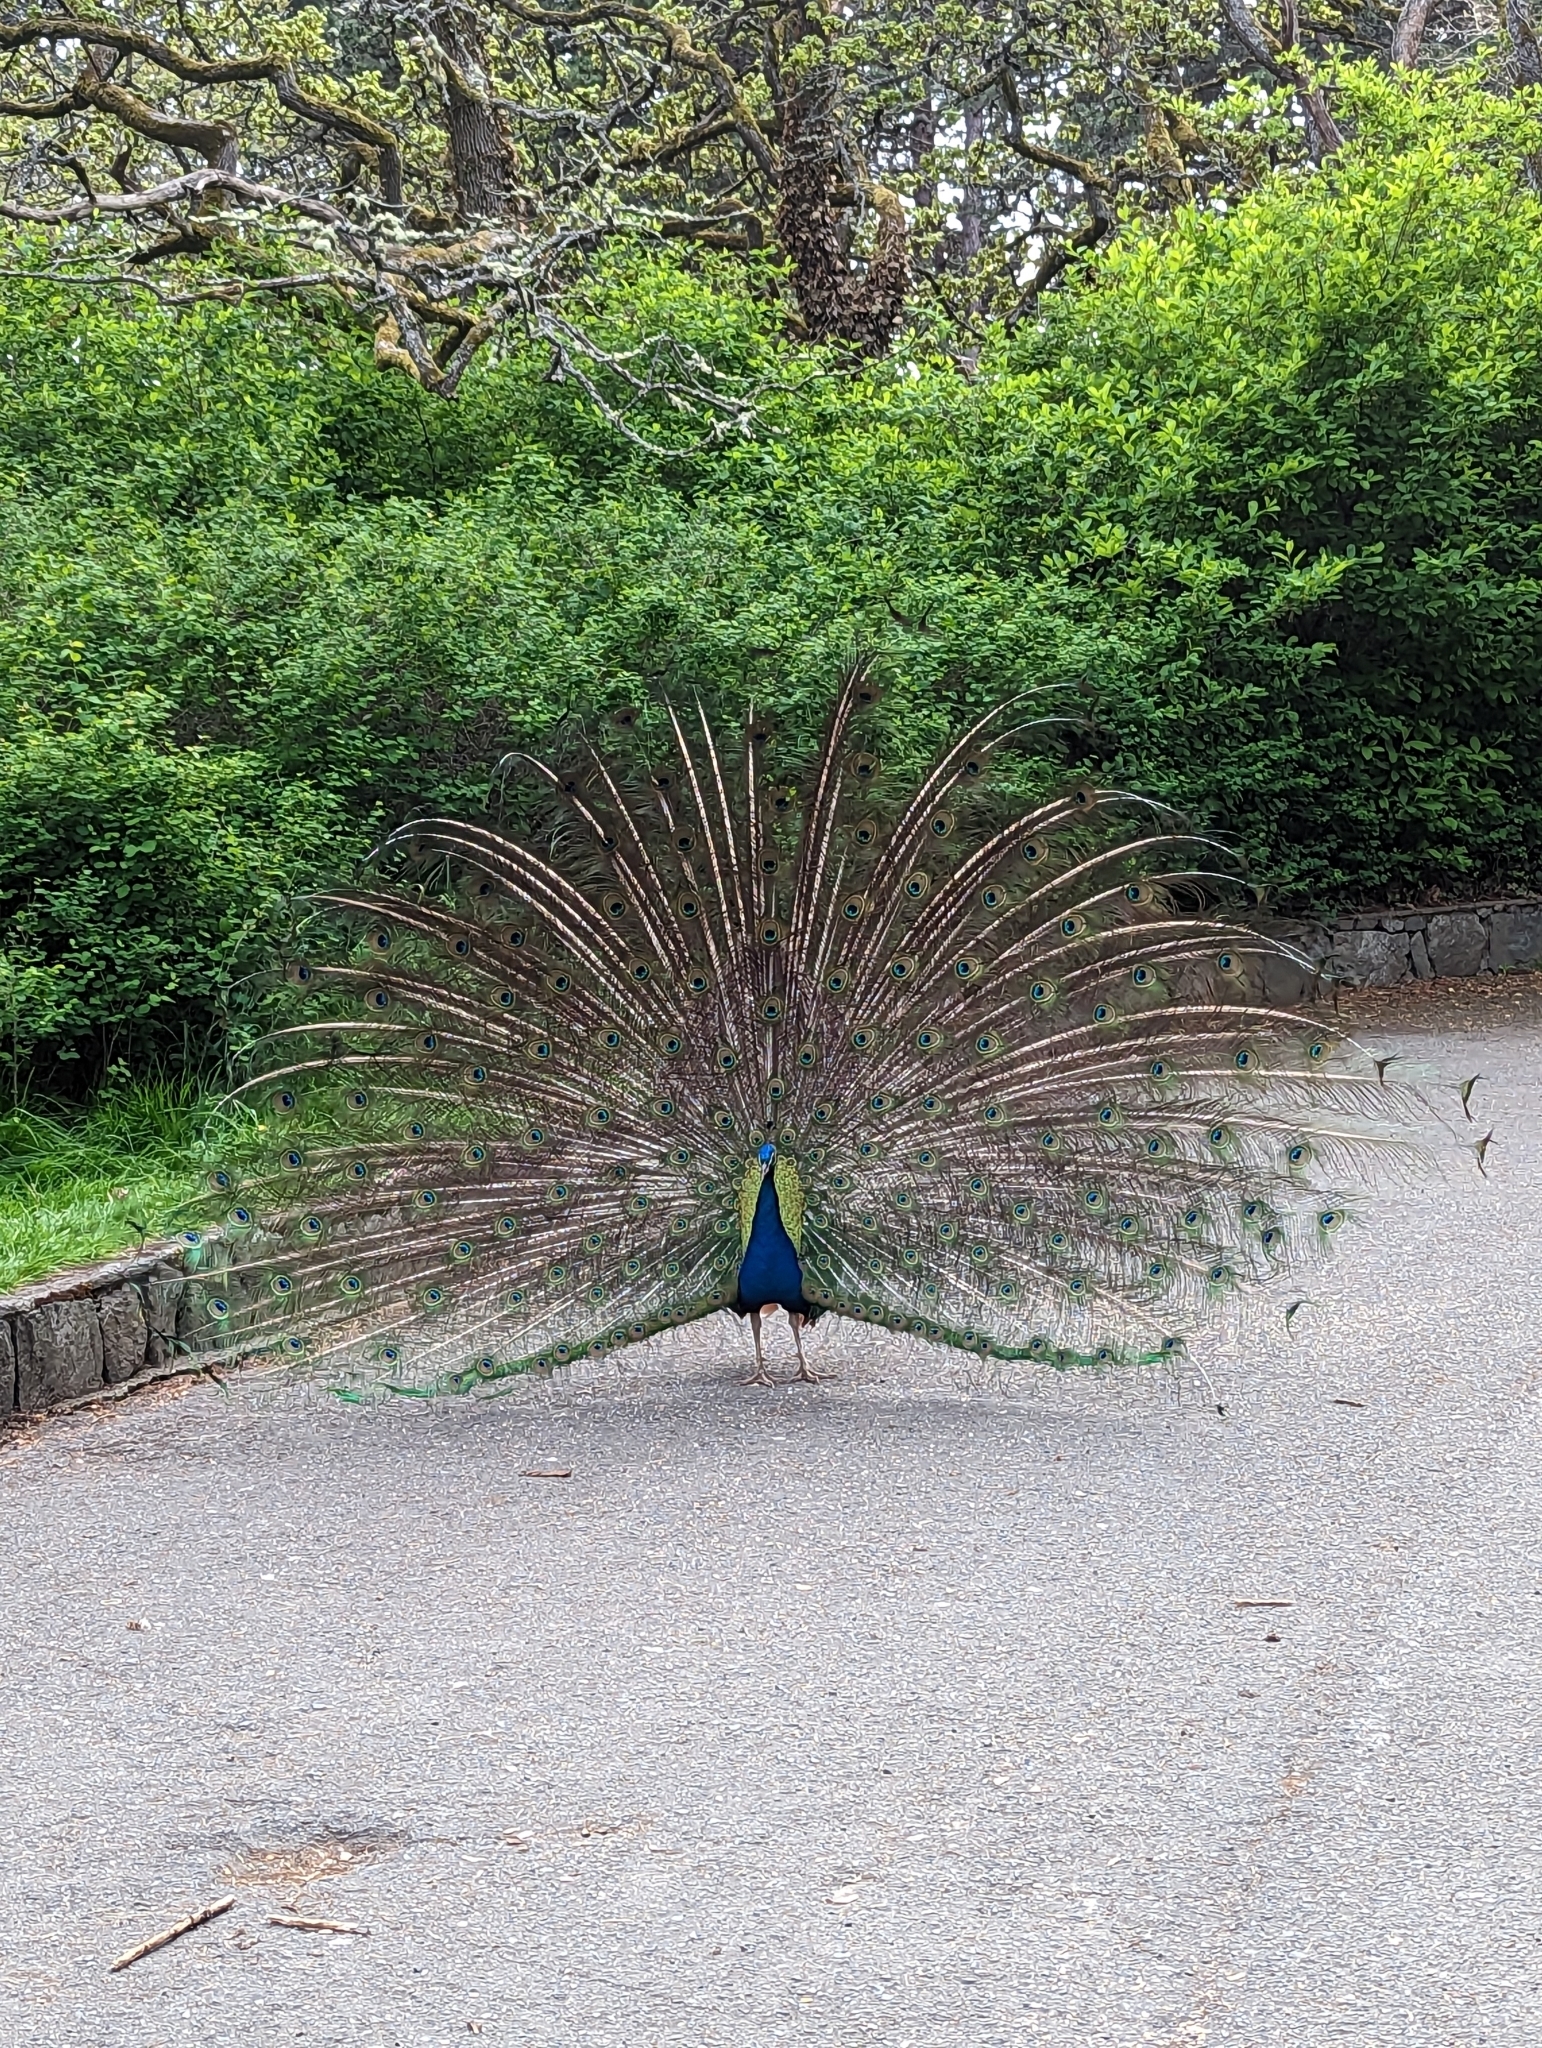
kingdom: Animalia
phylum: Chordata
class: Aves
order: Galliformes
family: Phasianidae
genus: Pavo
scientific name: Pavo cristatus
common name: Indian peafowl
